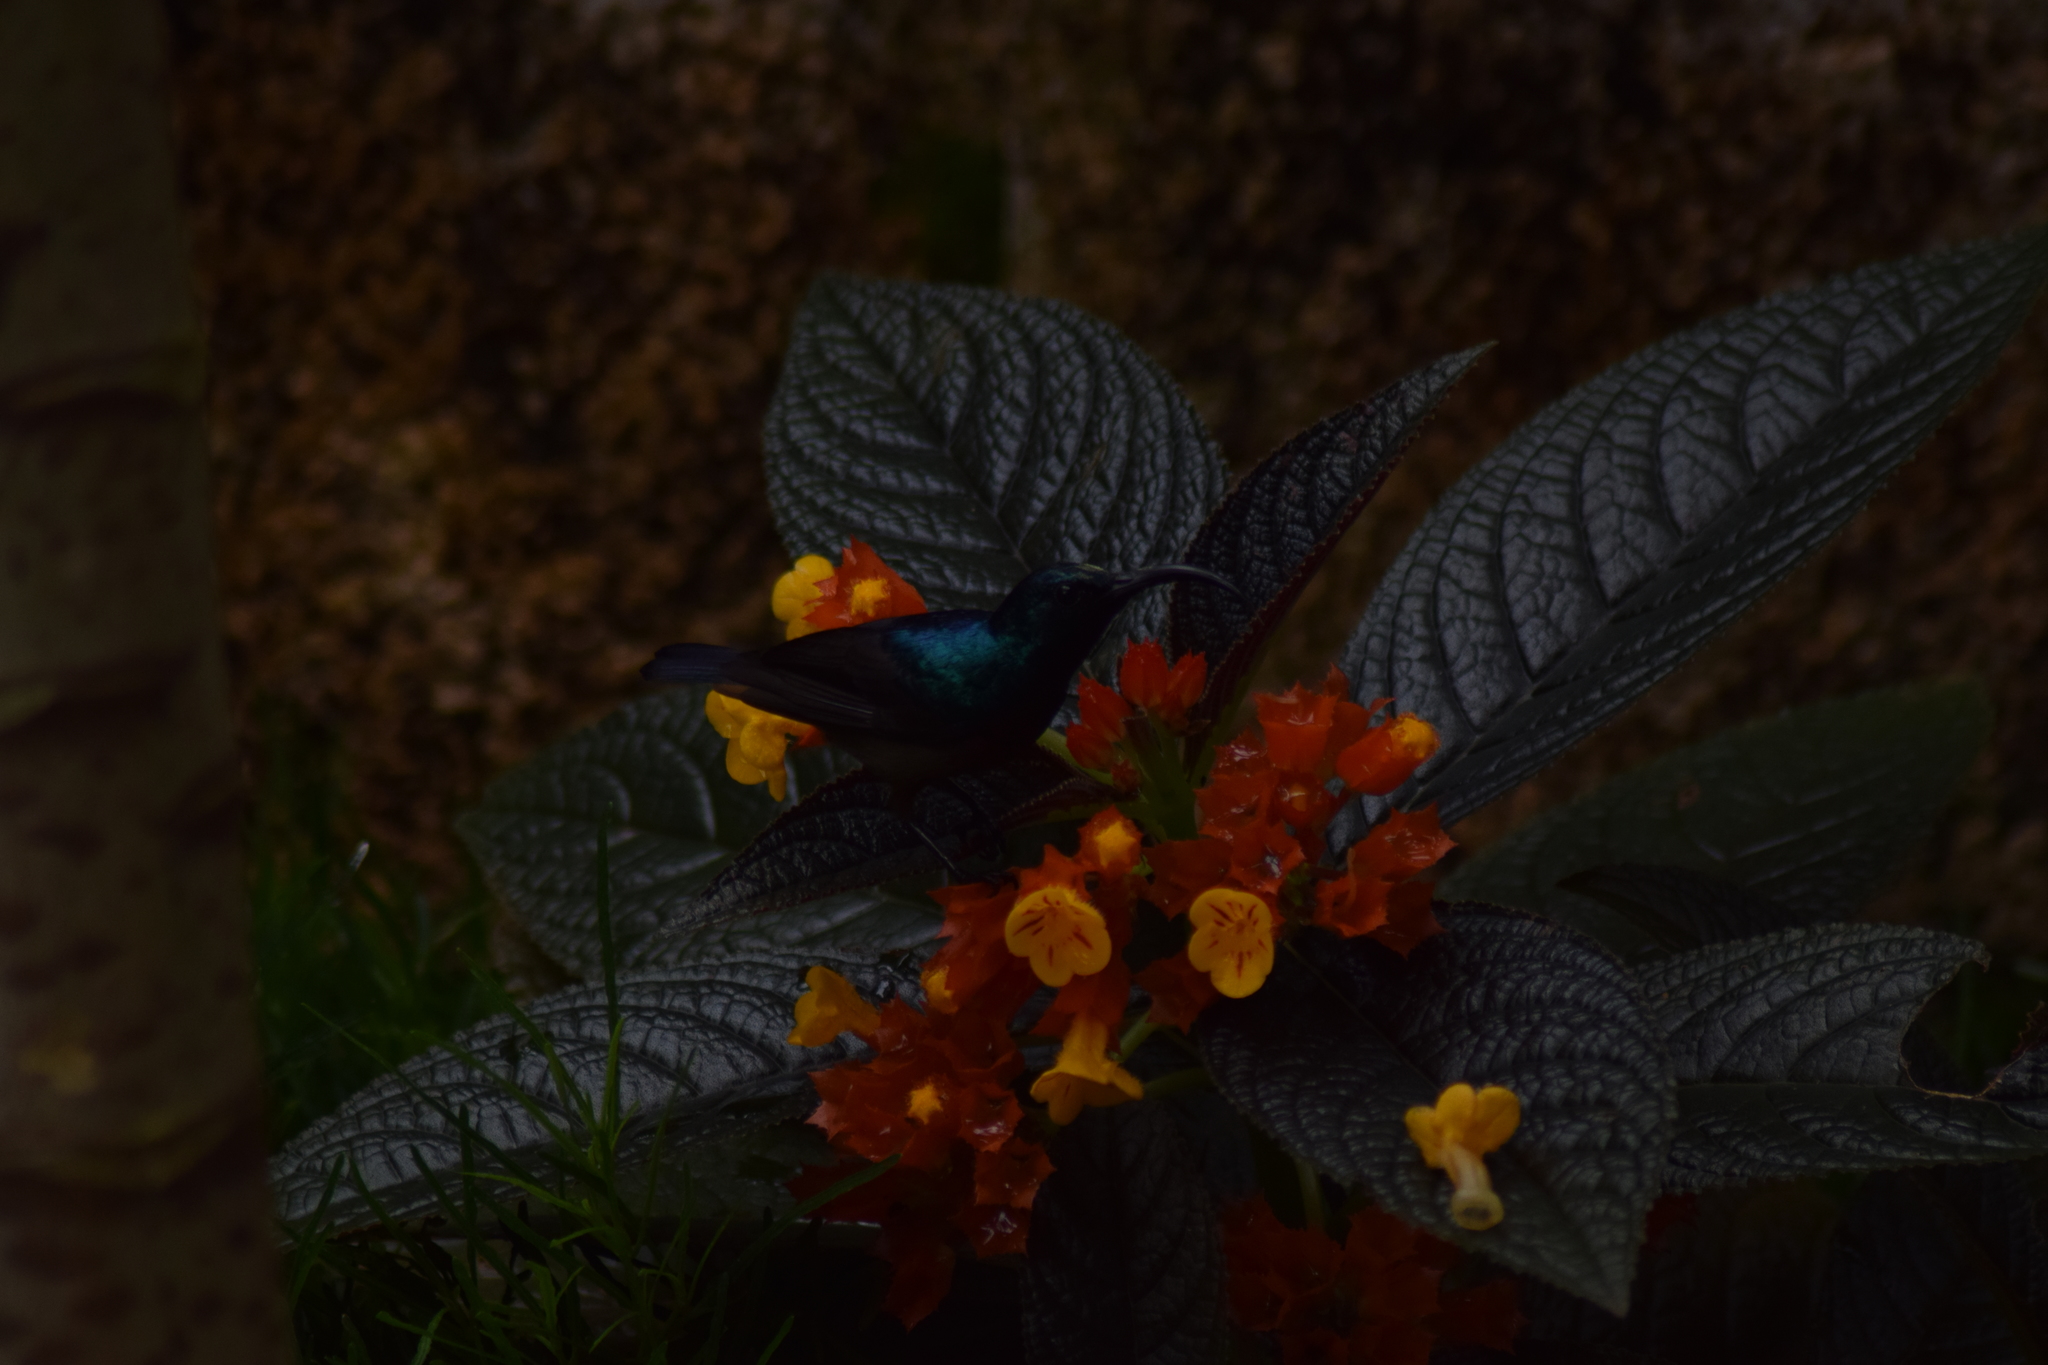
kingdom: Animalia
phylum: Chordata
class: Aves
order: Passeriformes
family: Nectariniidae
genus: Cinnyris
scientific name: Cinnyris lotenius
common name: Loten's sunbird
